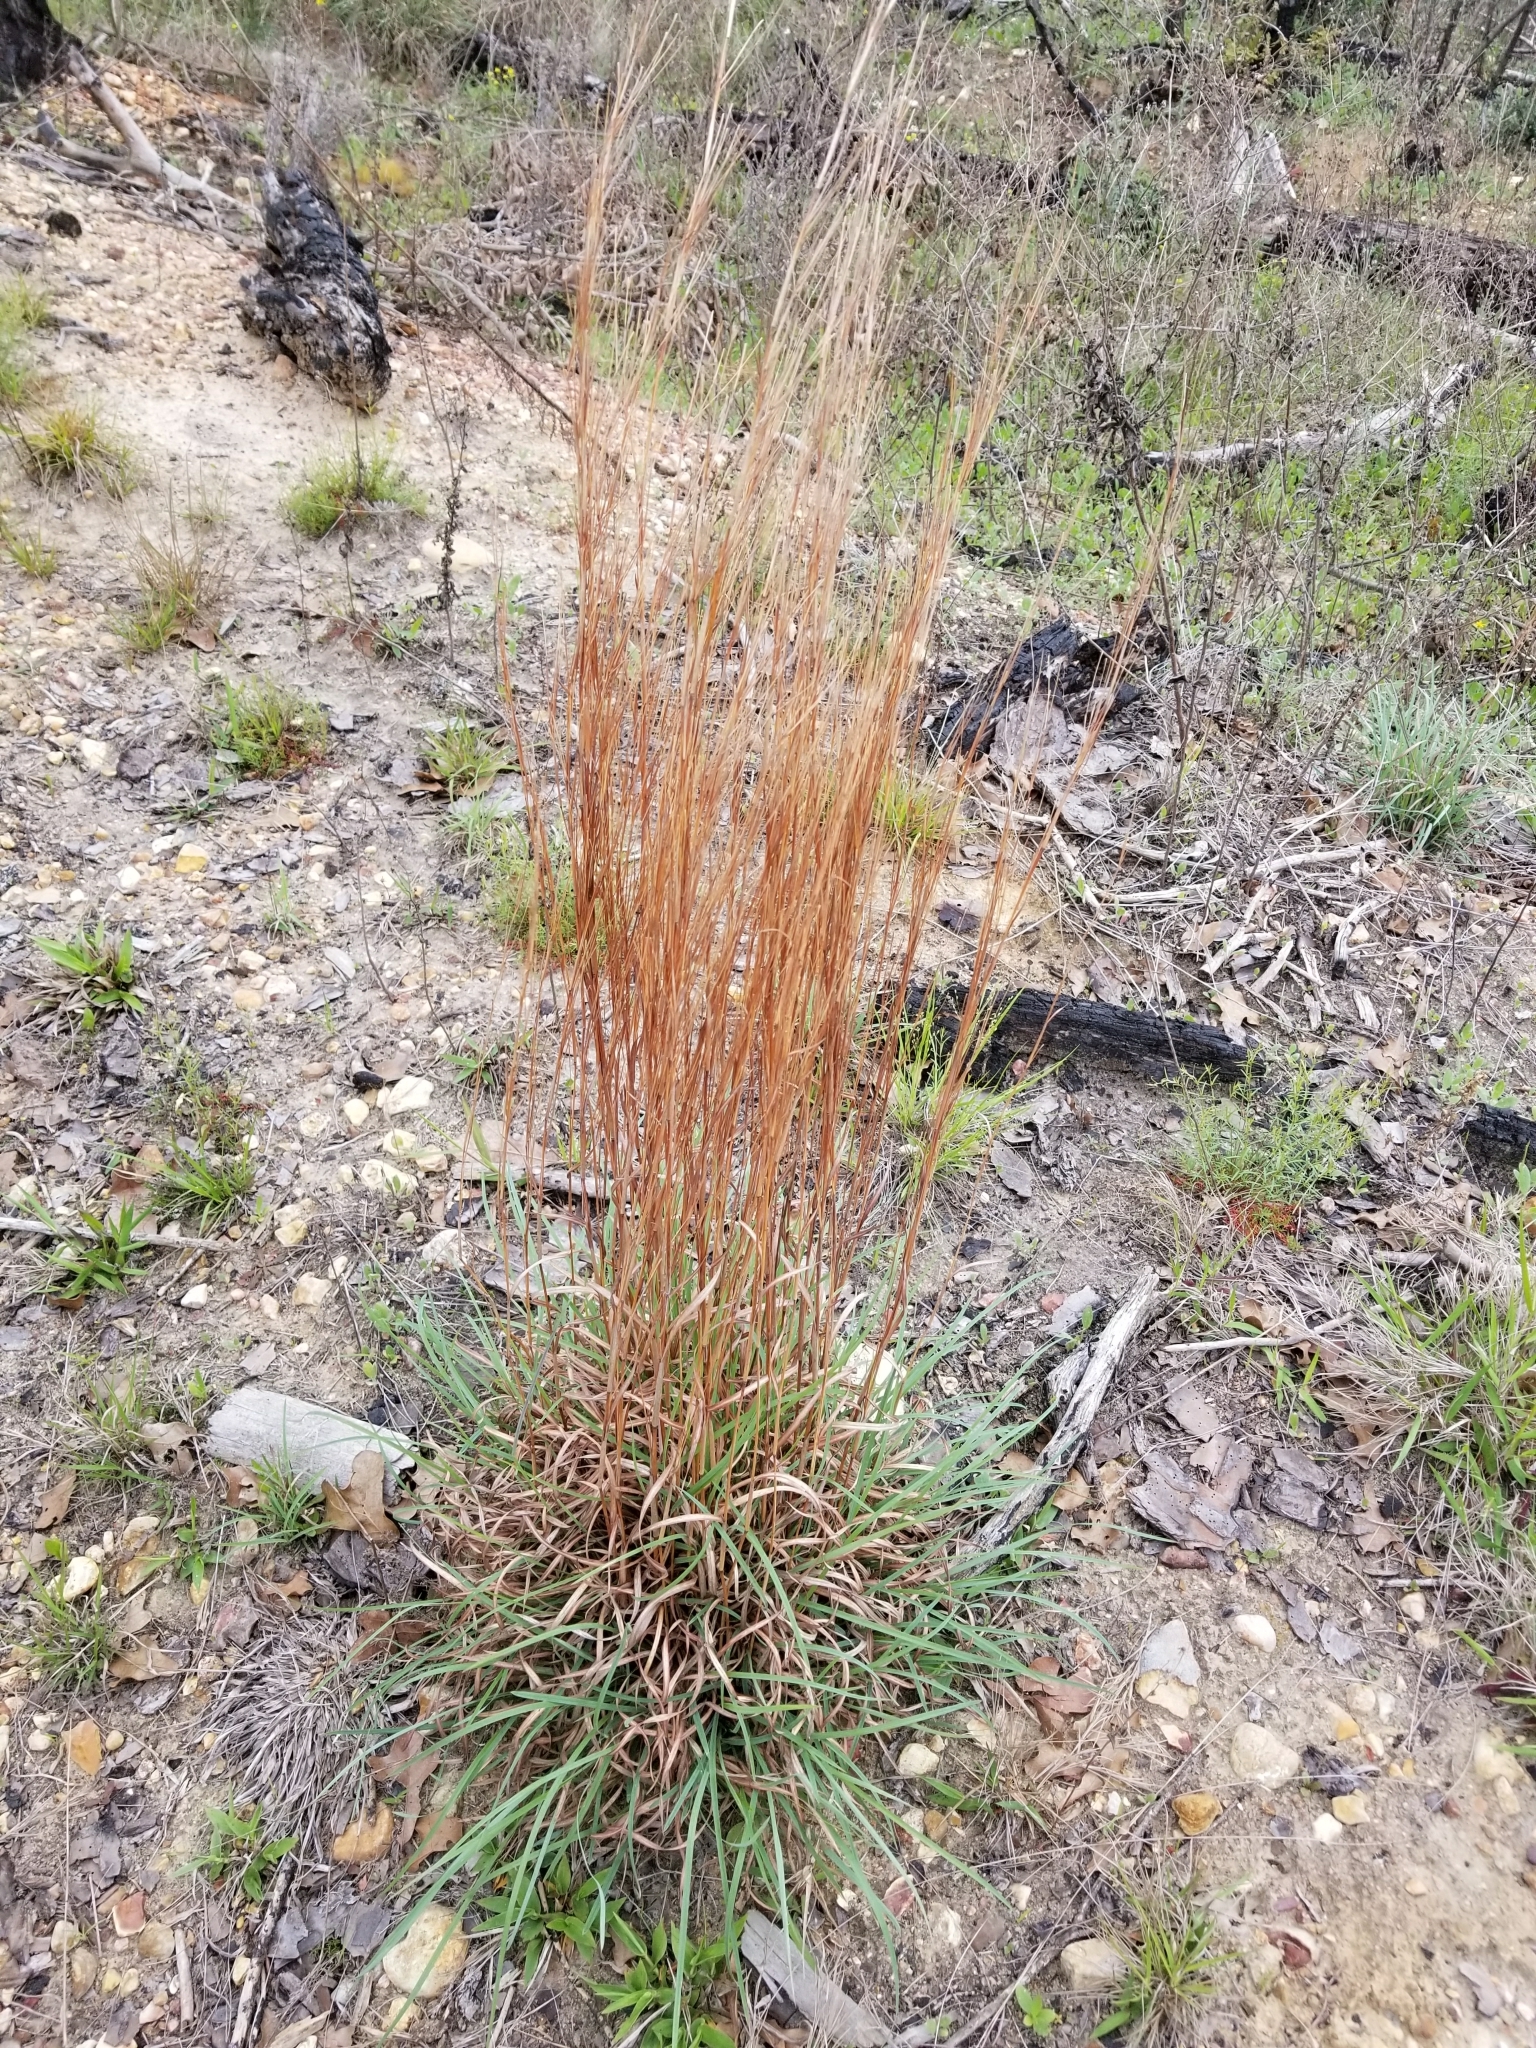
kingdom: Plantae
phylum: Tracheophyta
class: Liliopsida
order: Poales
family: Poaceae
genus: Schizachyrium
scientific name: Schizachyrium scoparium
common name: Little bluestem
